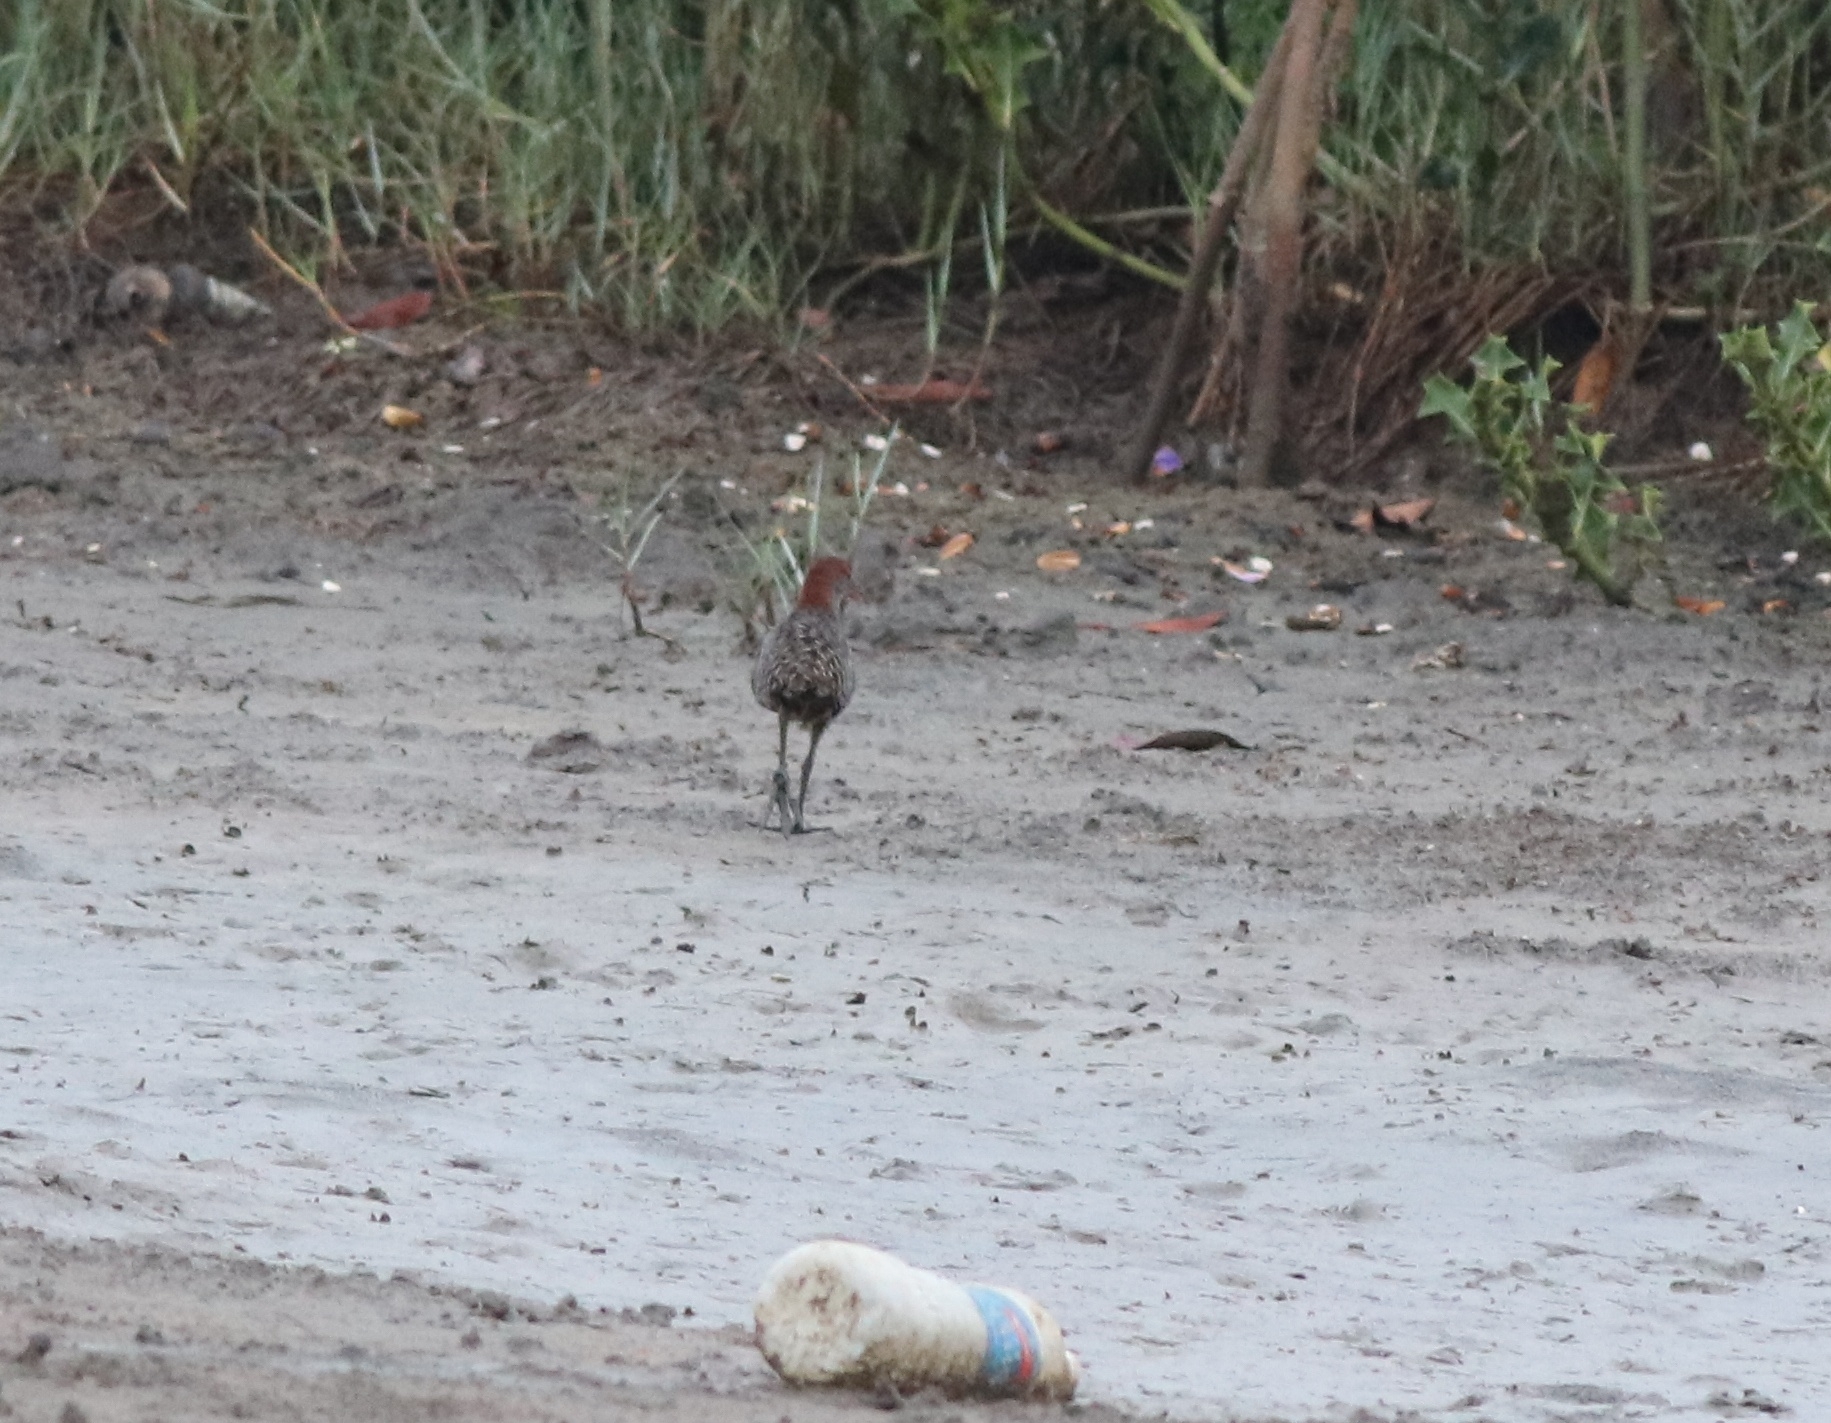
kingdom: Animalia
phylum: Chordata
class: Aves
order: Gruiformes
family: Rallidae
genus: Gallirallus
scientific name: Gallirallus striatus
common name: Slaty-breasted rail
